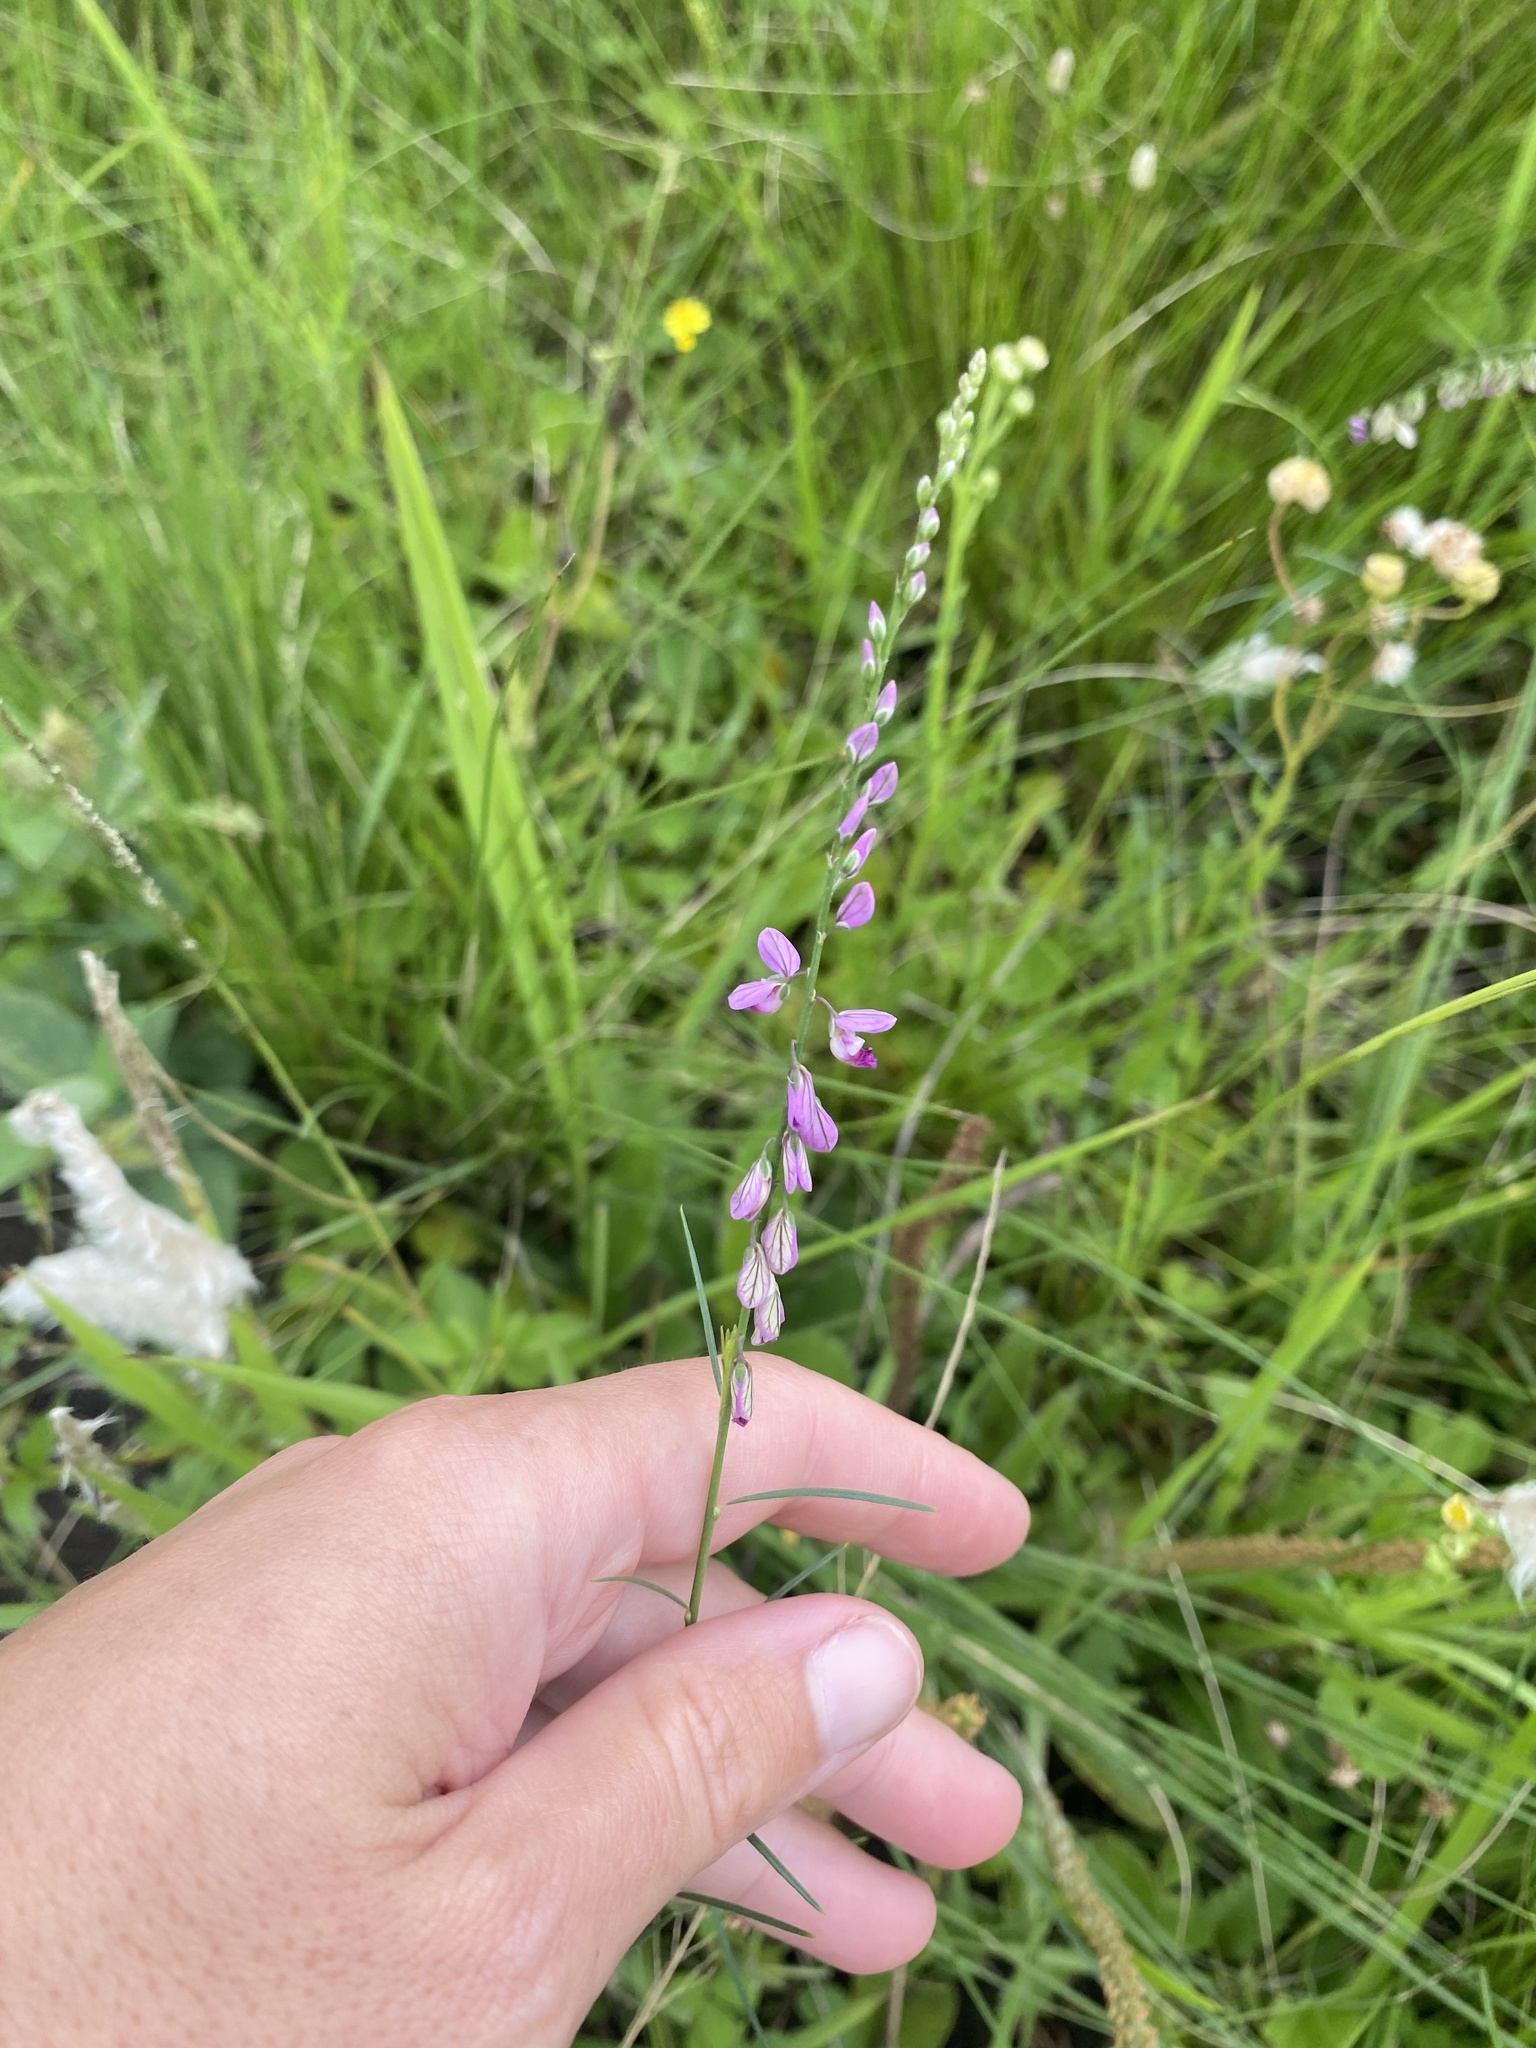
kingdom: Plantae
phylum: Tracheophyta
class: Magnoliopsida
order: Fabales
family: Polygalaceae
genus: Polygala
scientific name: Polygala hottentotta
